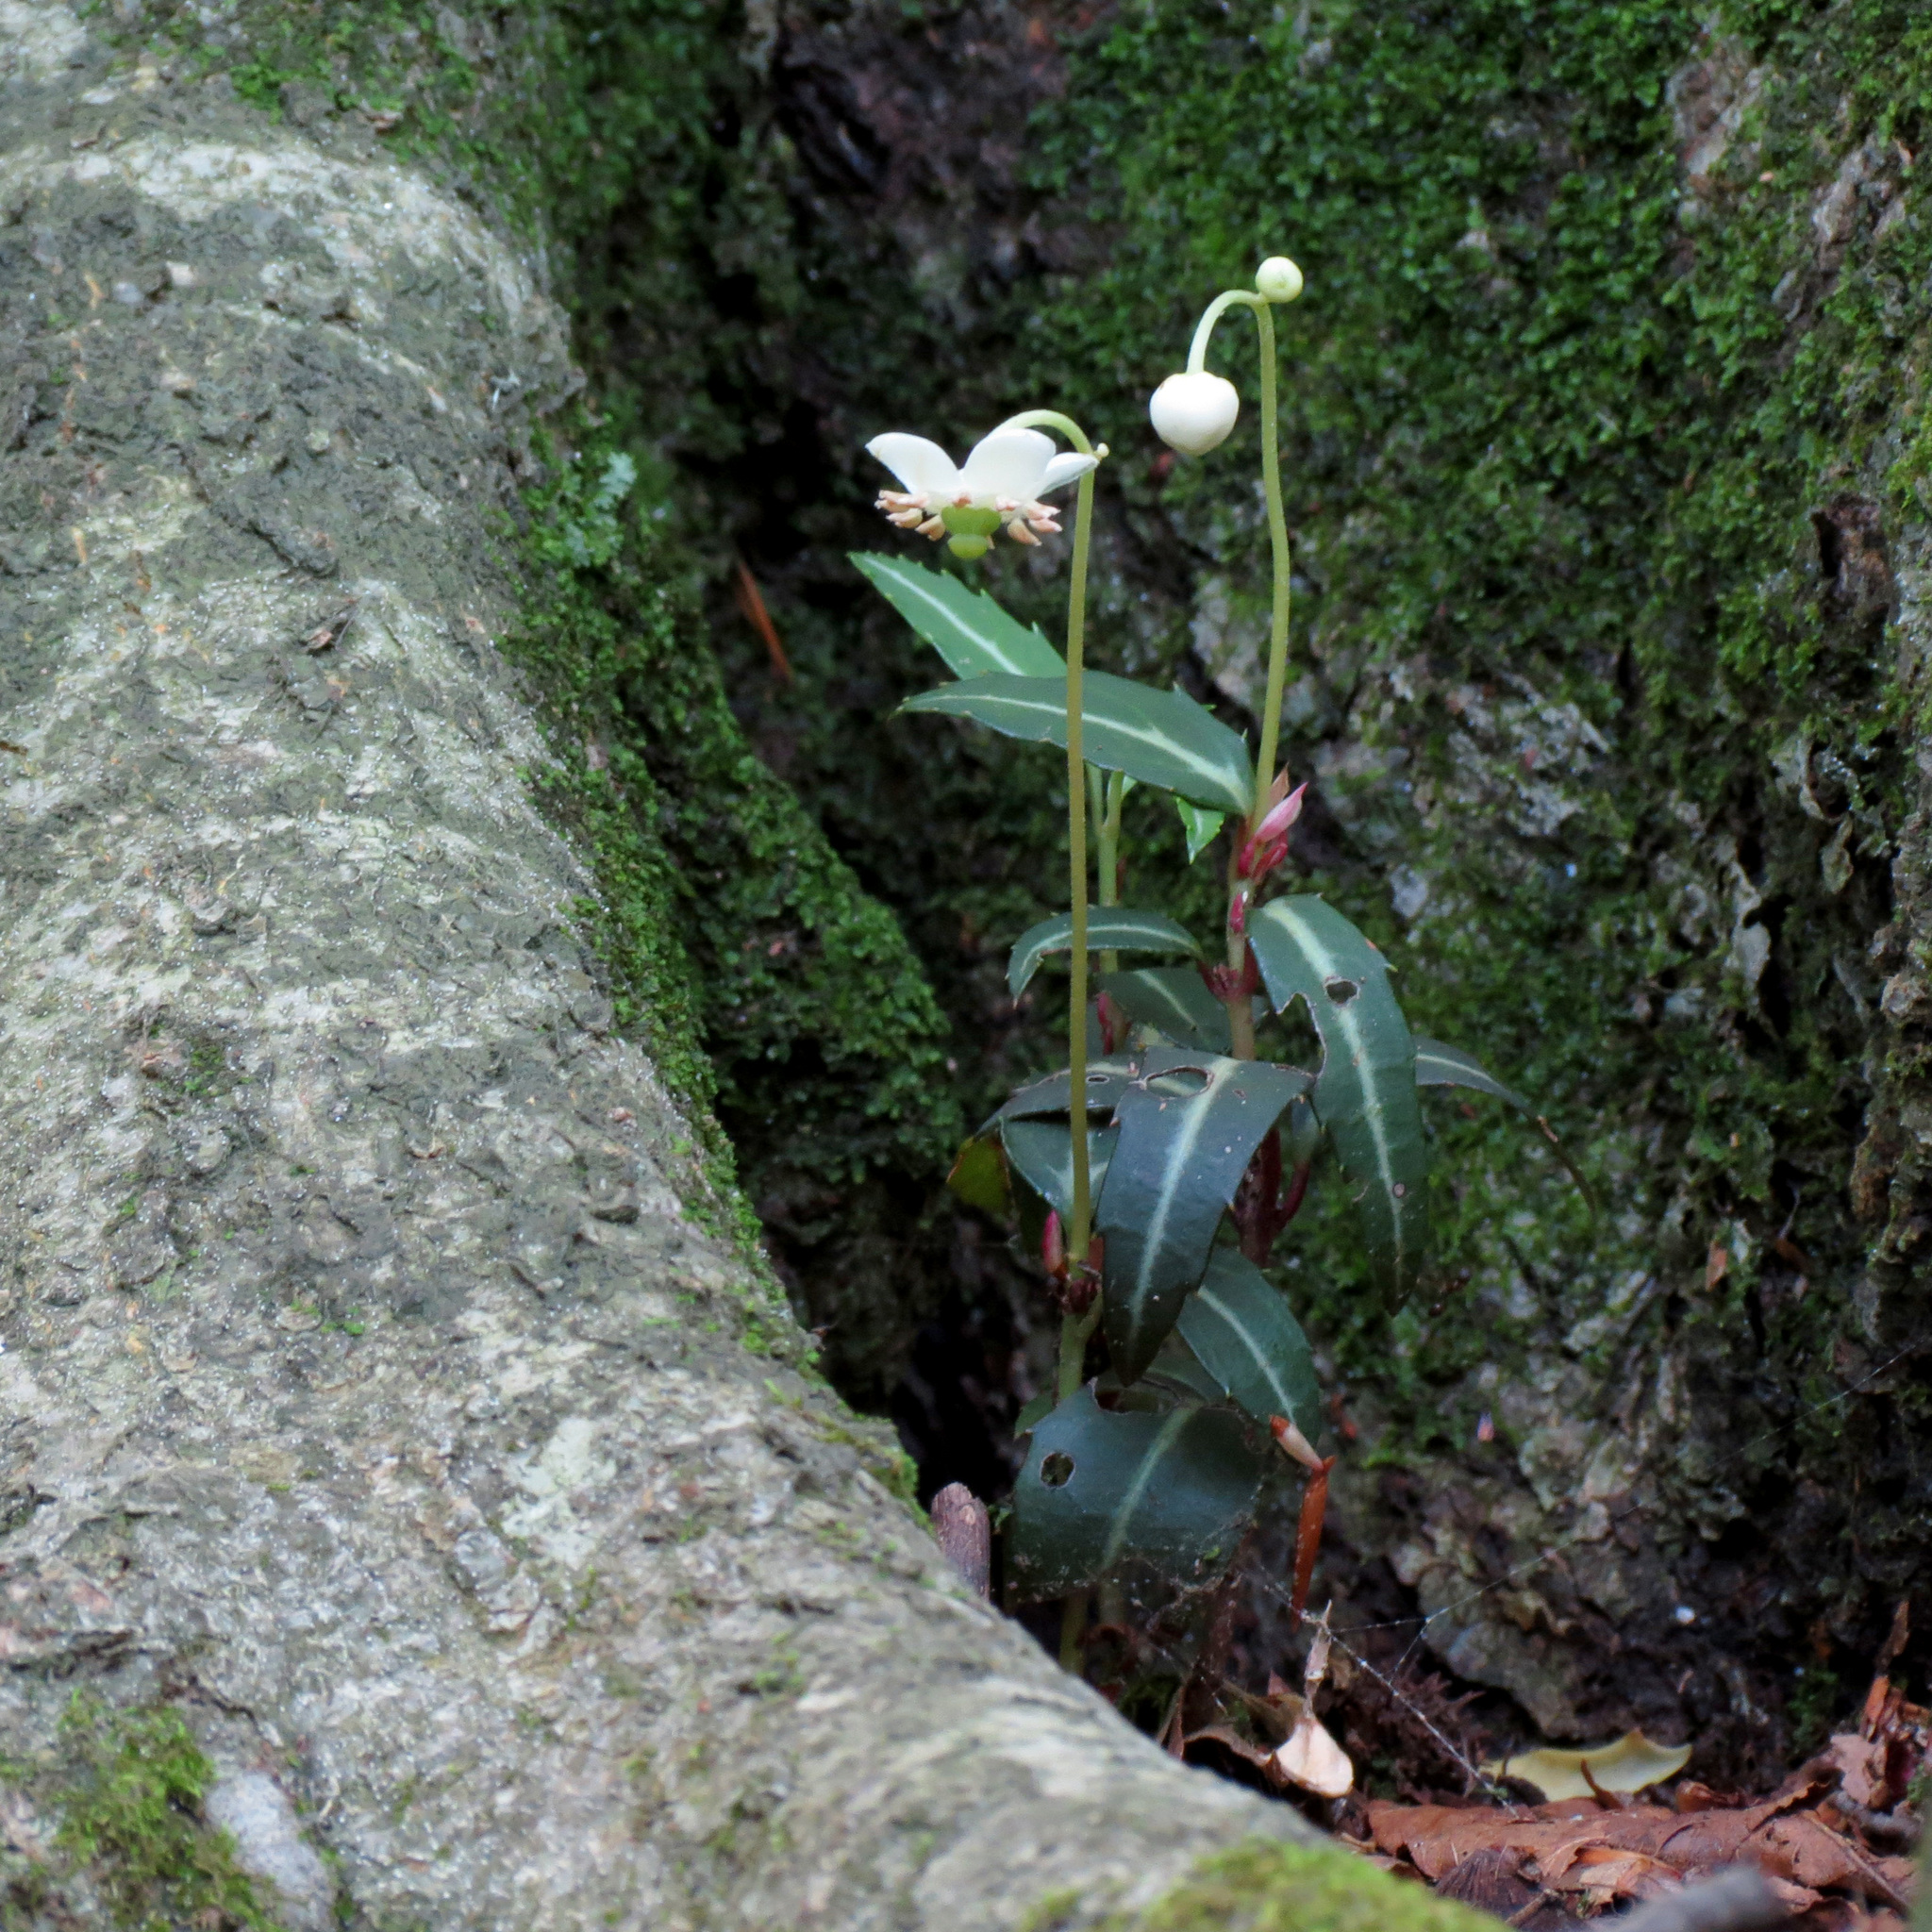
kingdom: Plantae
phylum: Tracheophyta
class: Magnoliopsida
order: Ericales
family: Ericaceae
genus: Chimaphila
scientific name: Chimaphila maculata
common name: Spotted pipsissewa
